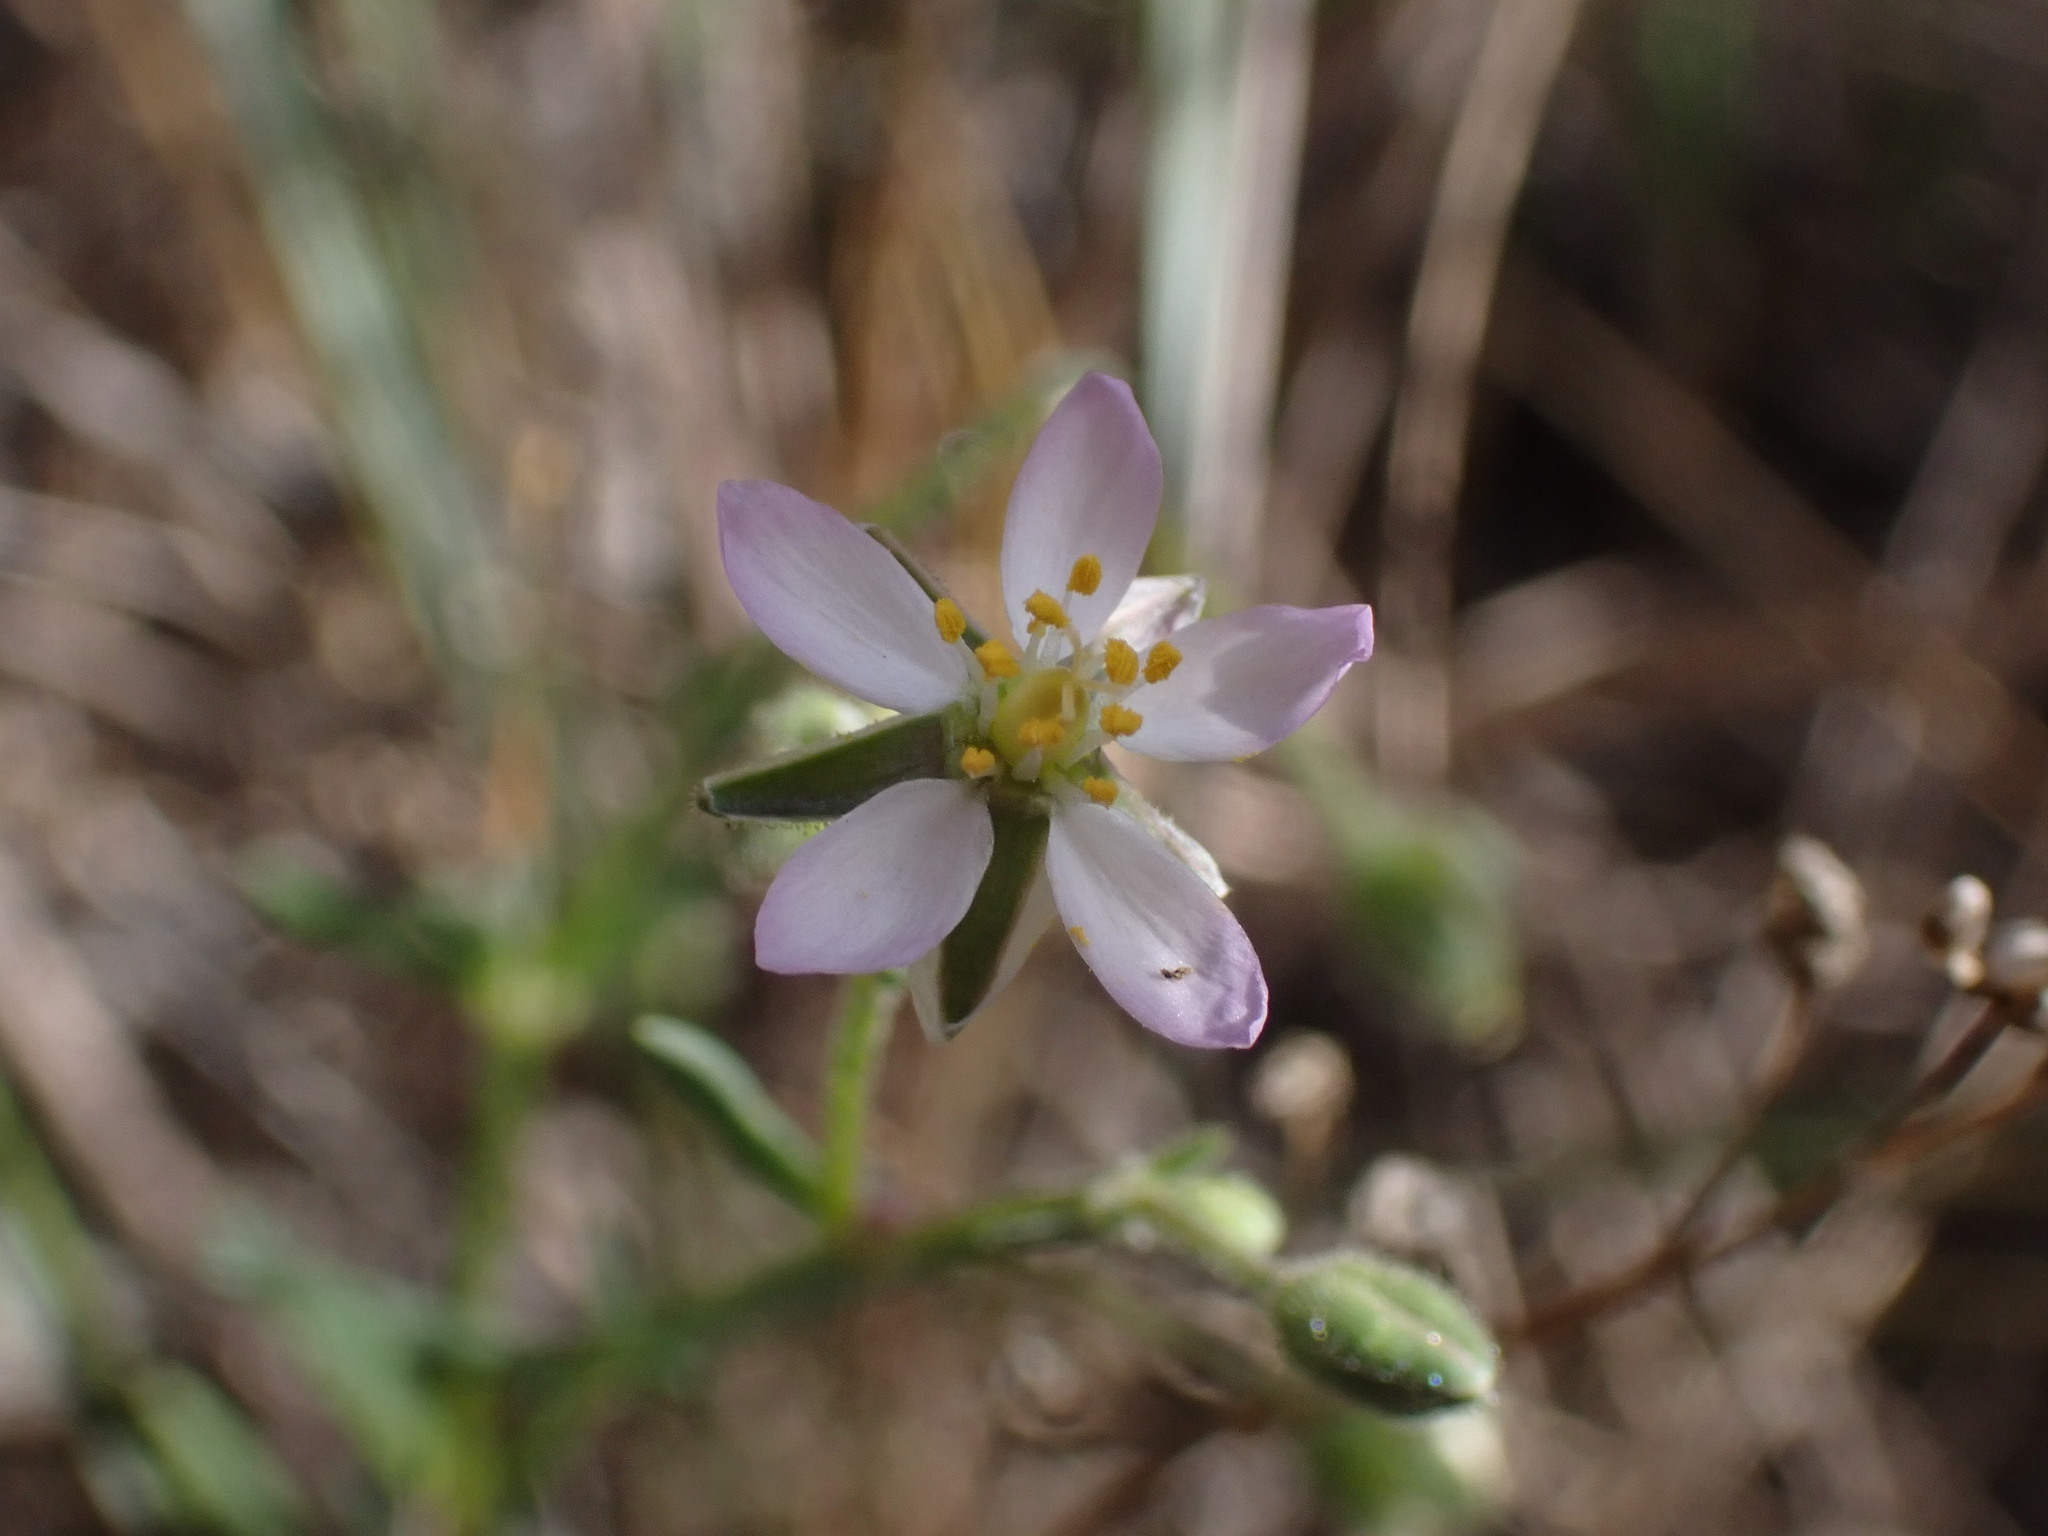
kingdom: Plantae
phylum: Tracheophyta
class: Magnoliopsida
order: Caryophyllales
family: Caryophyllaceae
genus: Spergularia
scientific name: Spergularia media
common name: Greater sea-spurrey
